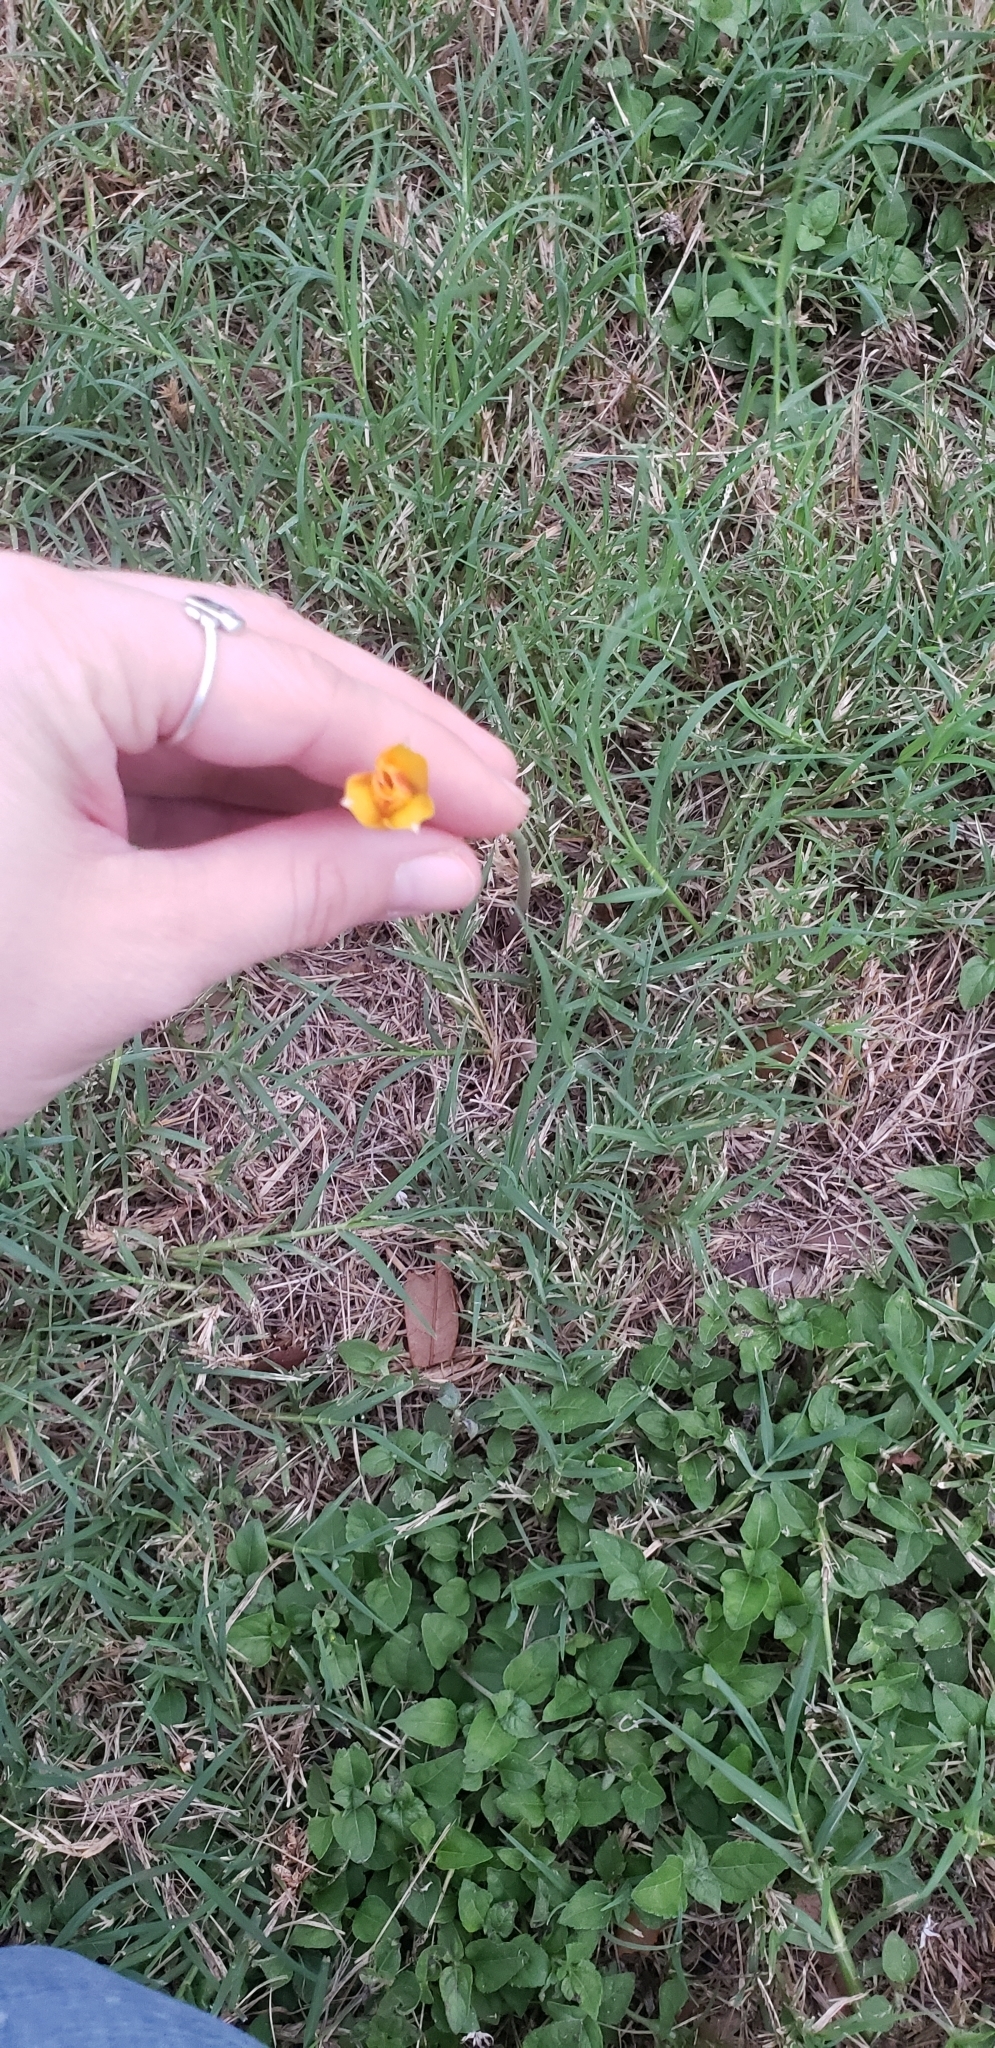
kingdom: Plantae
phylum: Tracheophyta
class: Liliopsida
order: Asparagales
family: Amaryllidaceae
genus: Zephyranthes
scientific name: Zephyranthes tubispatha
